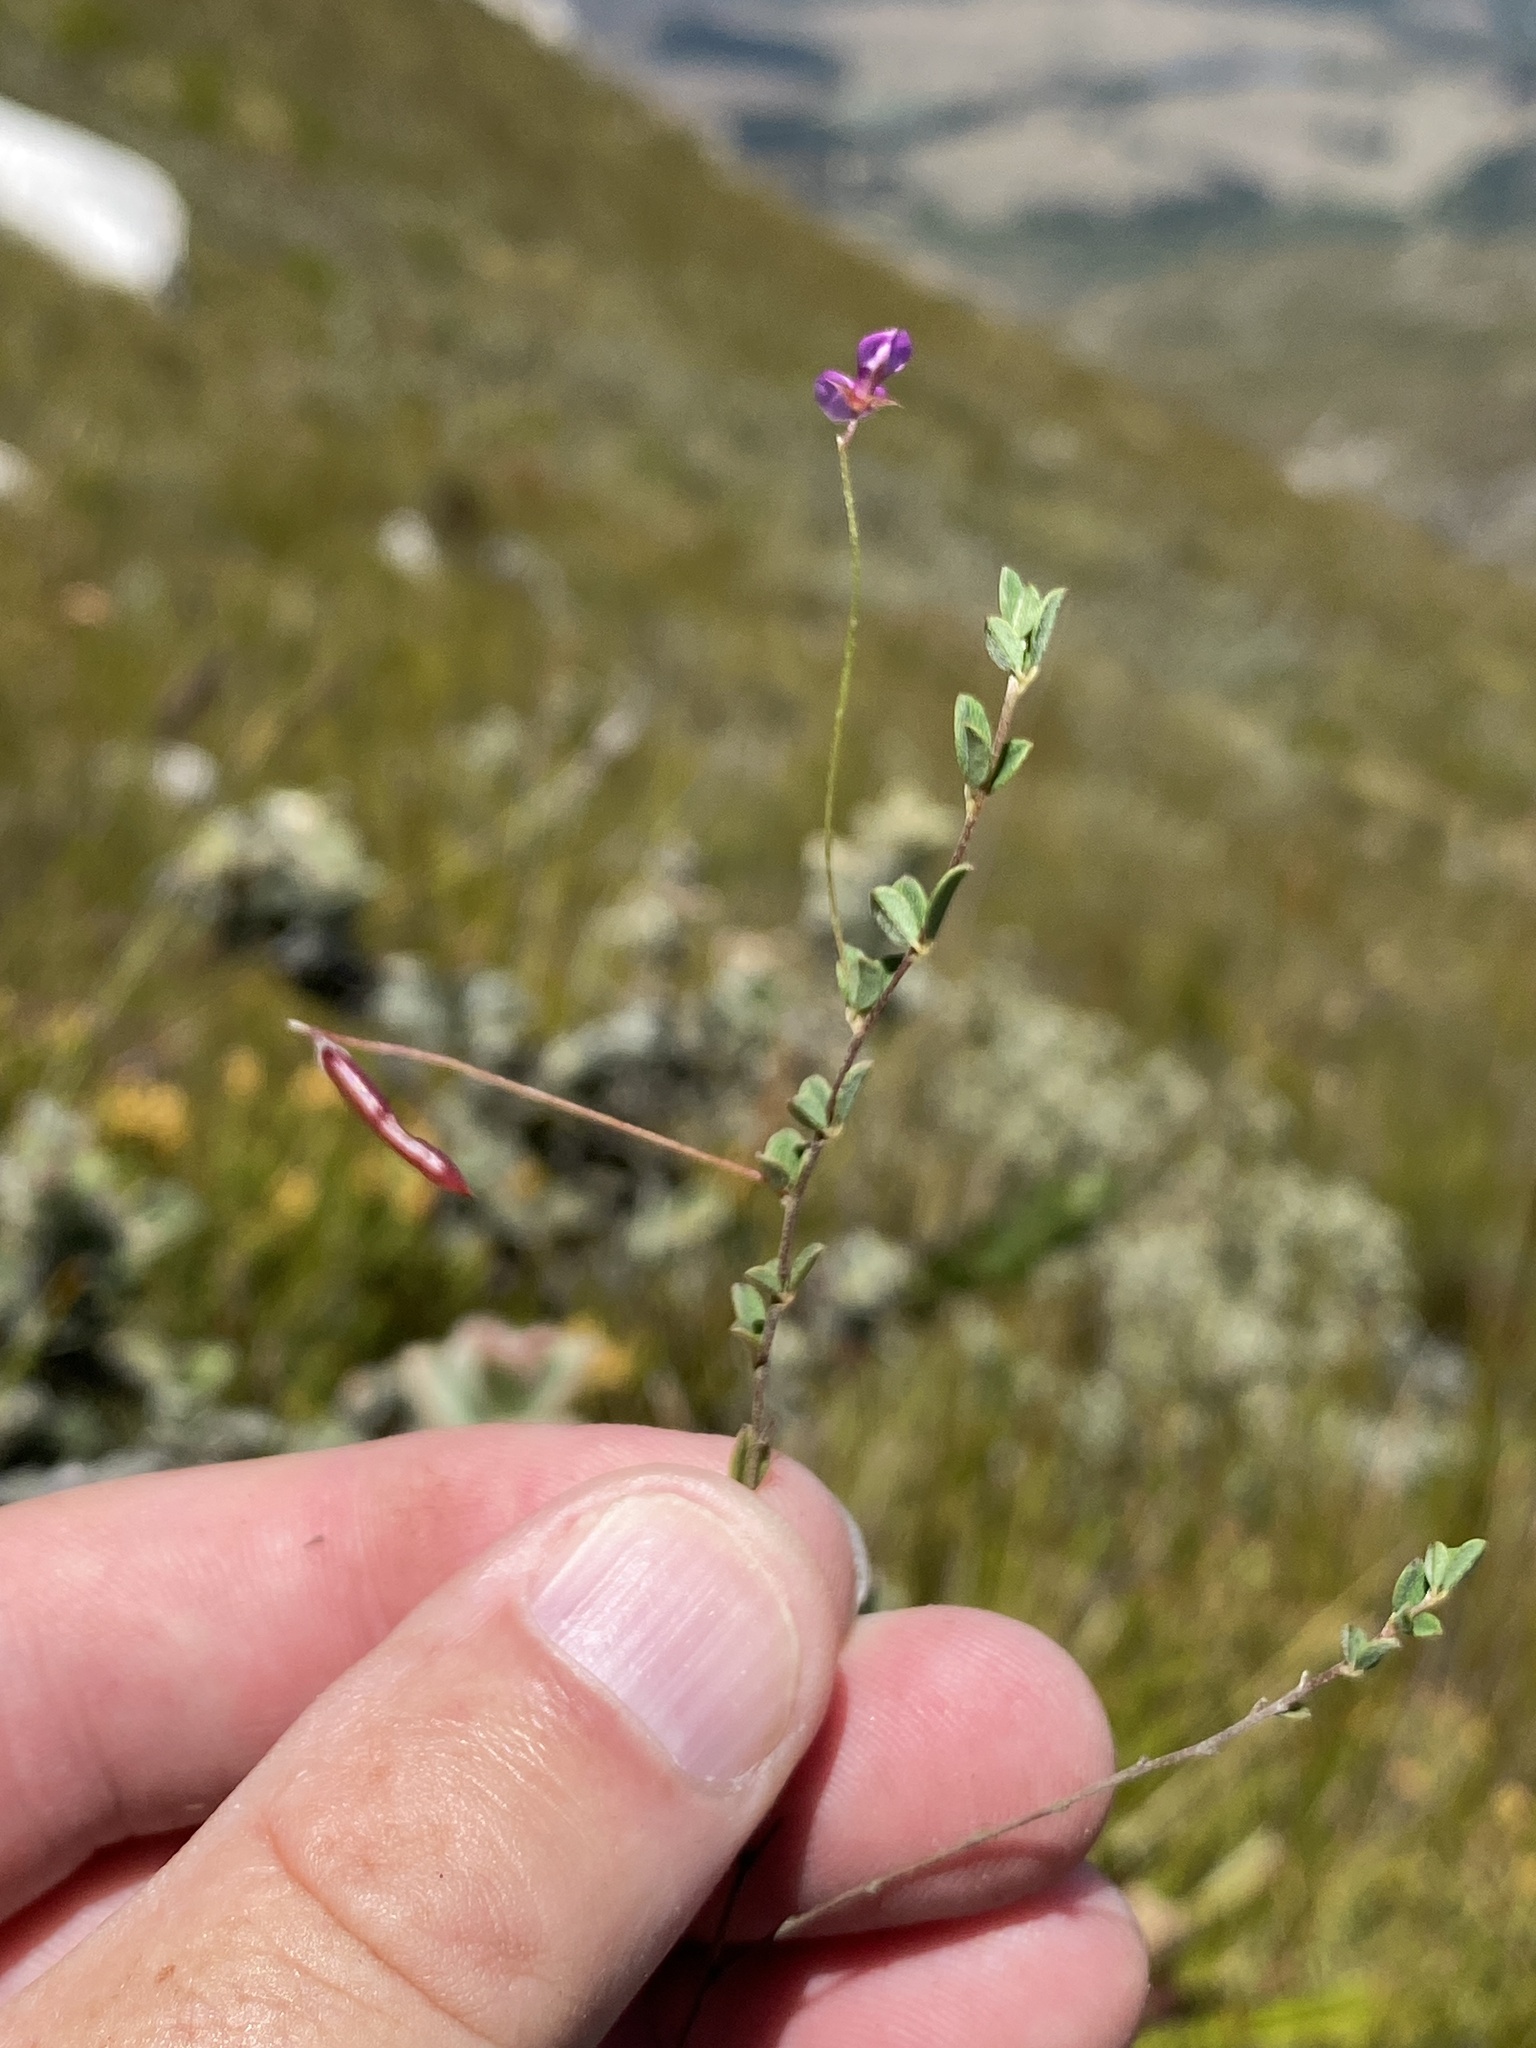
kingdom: Plantae
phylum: Tracheophyta
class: Magnoliopsida
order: Fabales
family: Fabaceae
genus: Indigofera
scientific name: Indigofera sarmentosa
